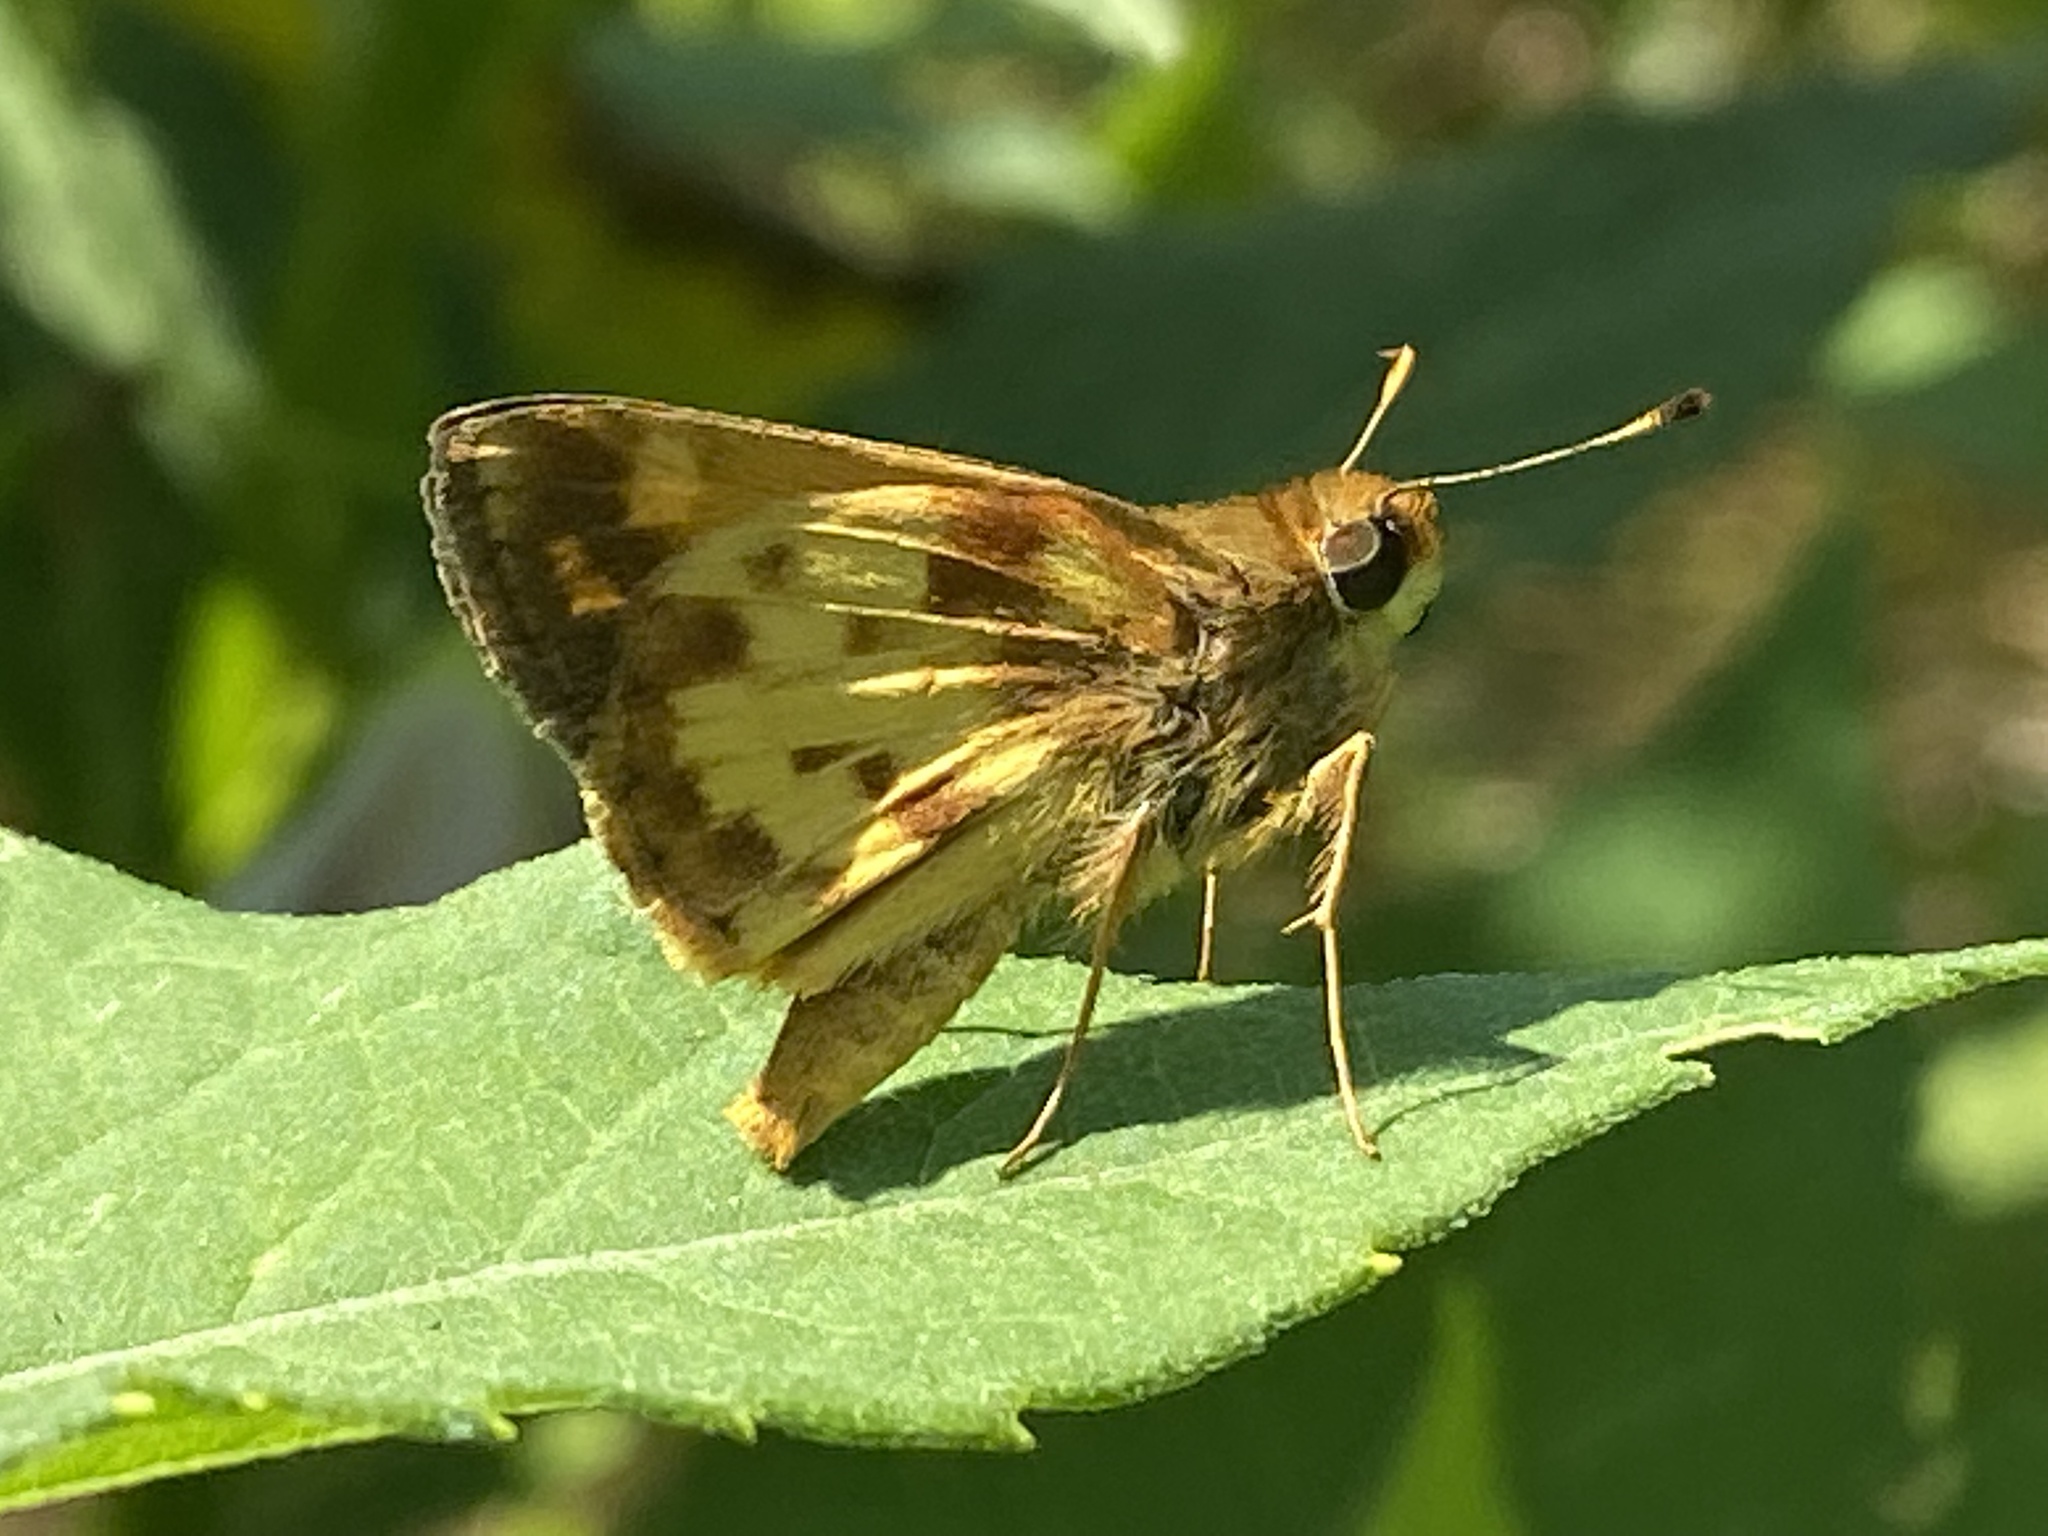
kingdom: Animalia
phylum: Arthropoda
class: Insecta
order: Lepidoptera
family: Hesperiidae
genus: Lon
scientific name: Lon zabulon
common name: Zabulon skipper
